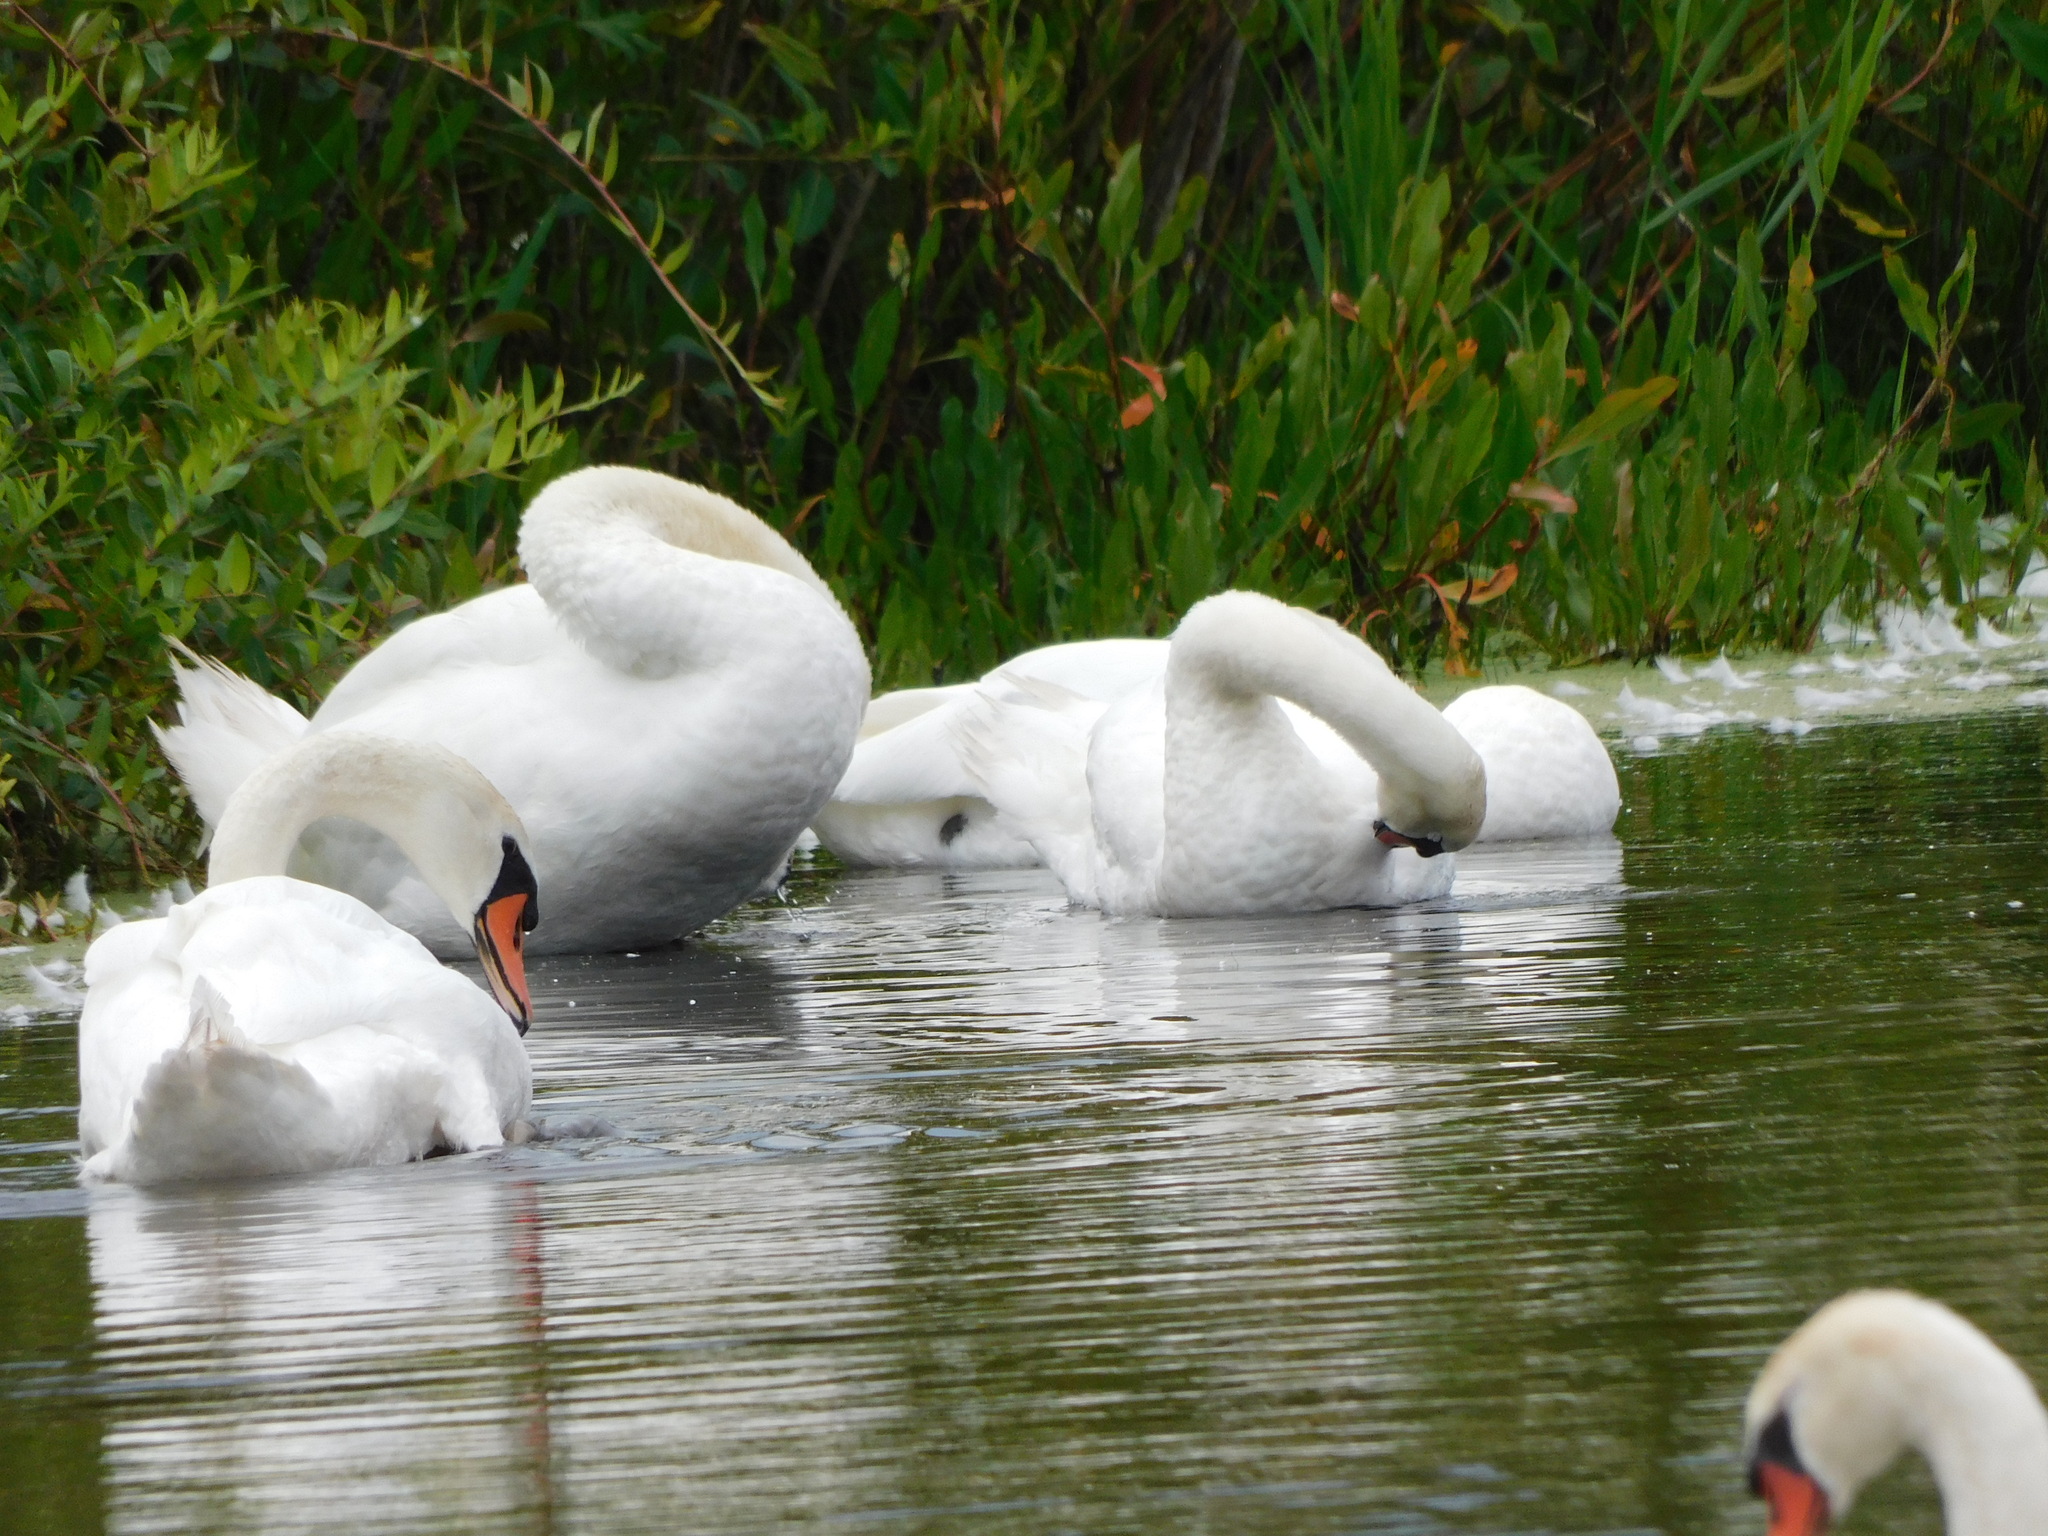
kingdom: Animalia
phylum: Chordata
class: Aves
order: Anseriformes
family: Anatidae
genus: Cygnus
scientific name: Cygnus olor
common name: Mute swan
